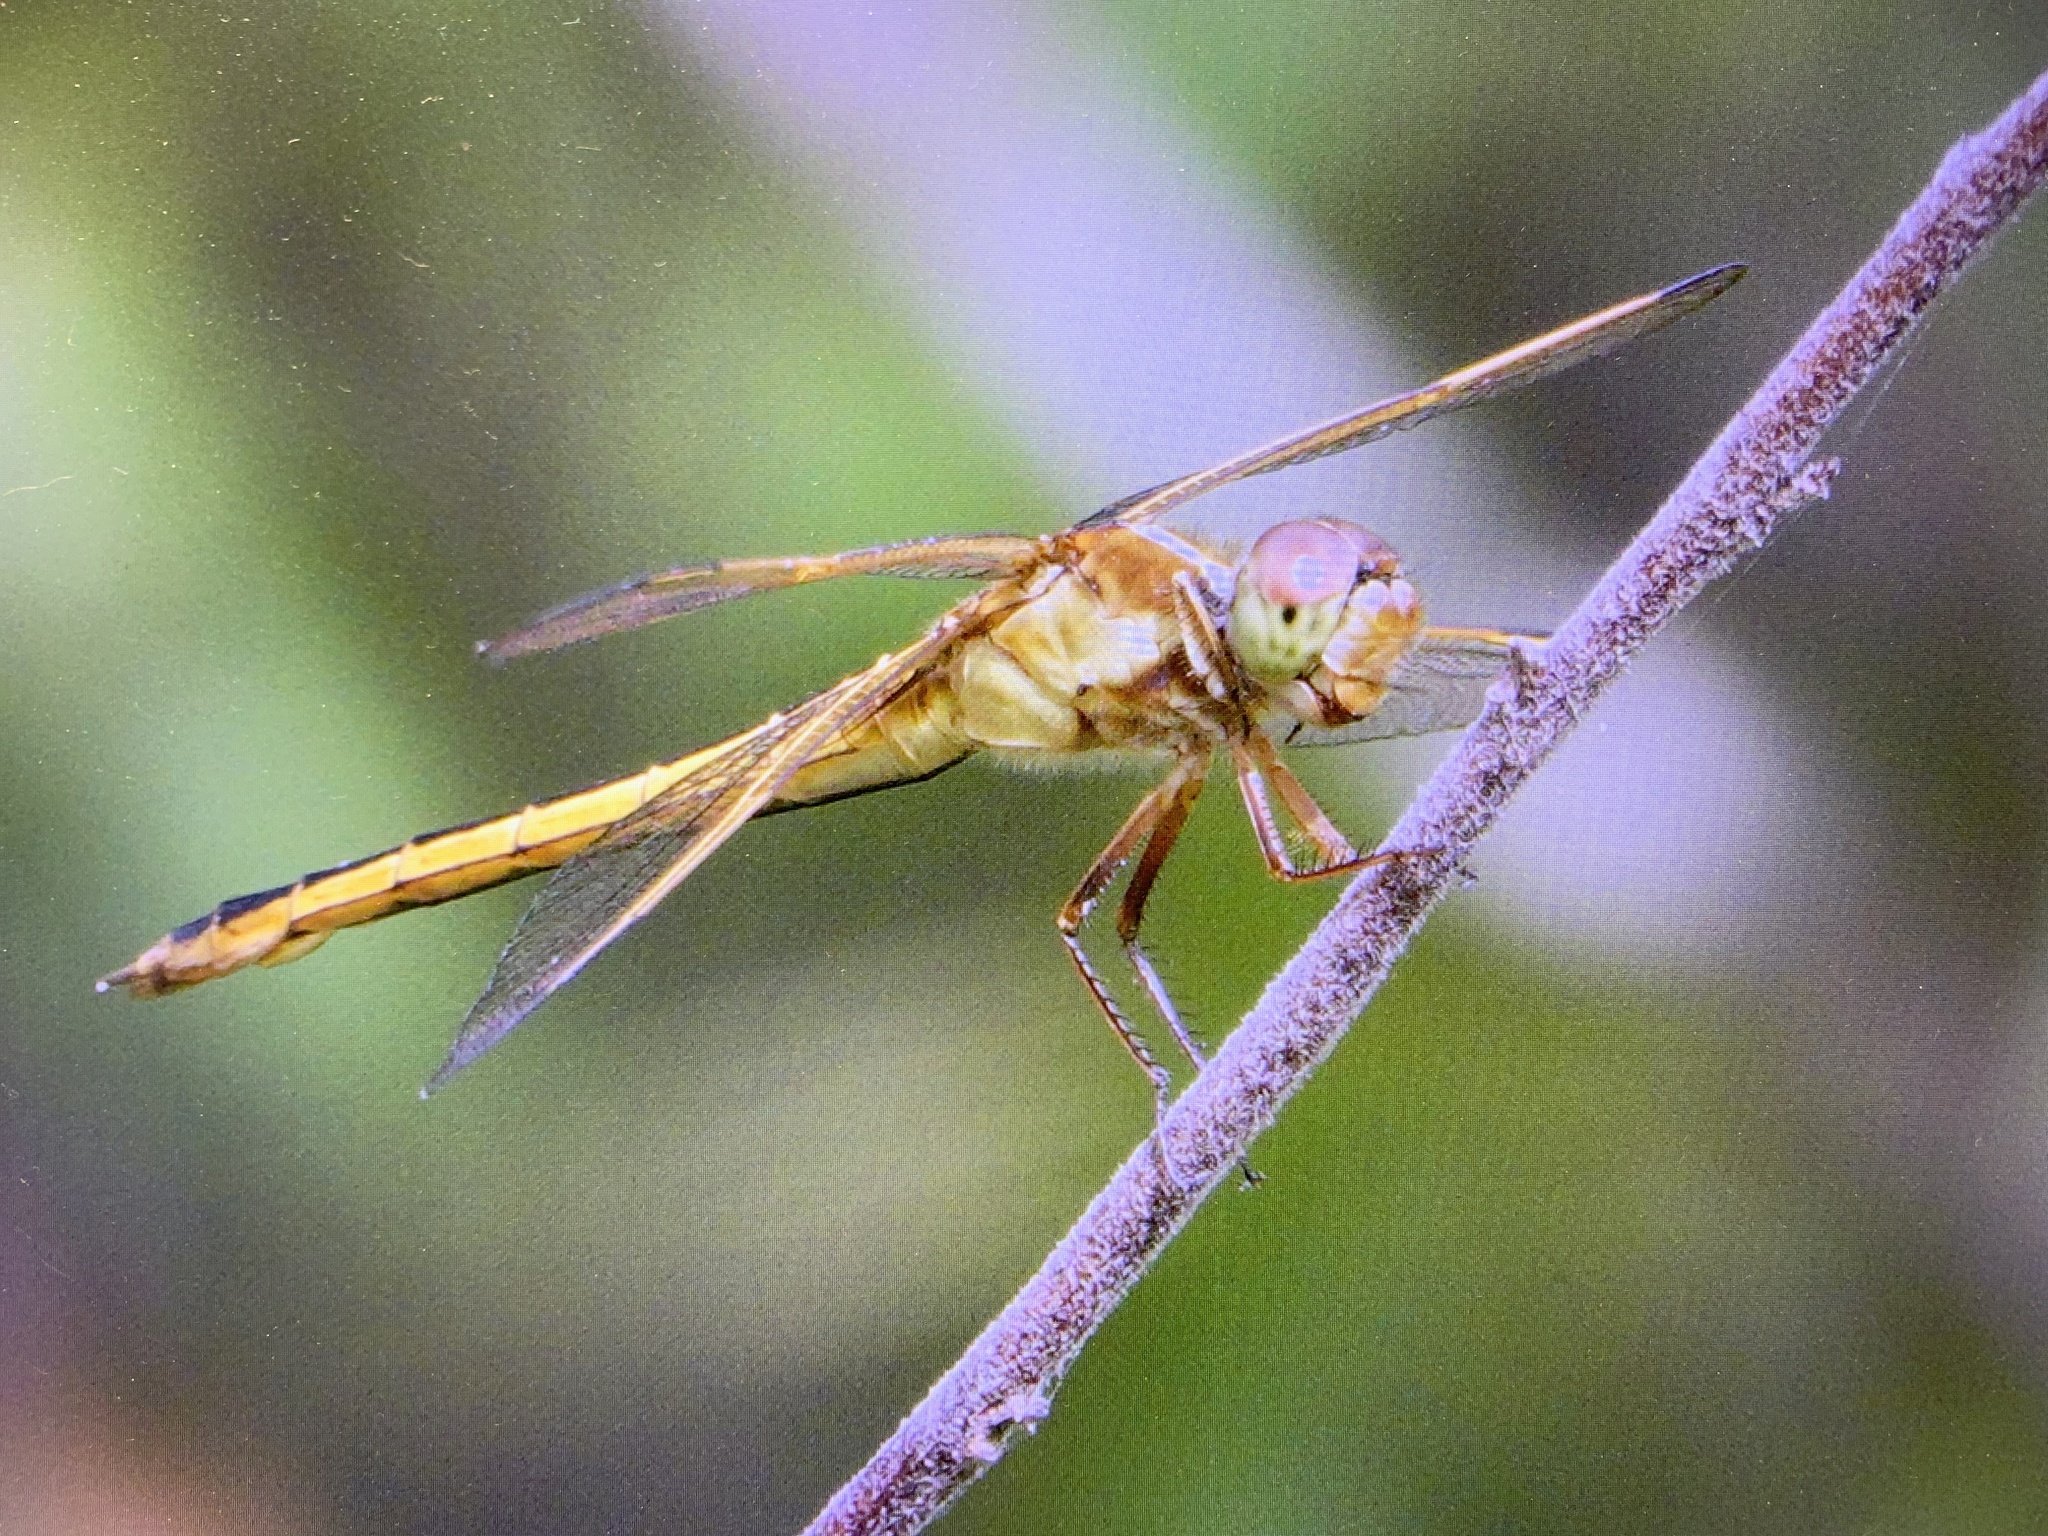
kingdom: Animalia
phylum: Arthropoda
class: Insecta
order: Odonata
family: Libellulidae
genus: Libellula
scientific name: Libellula needhami
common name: Needham's skimmer
